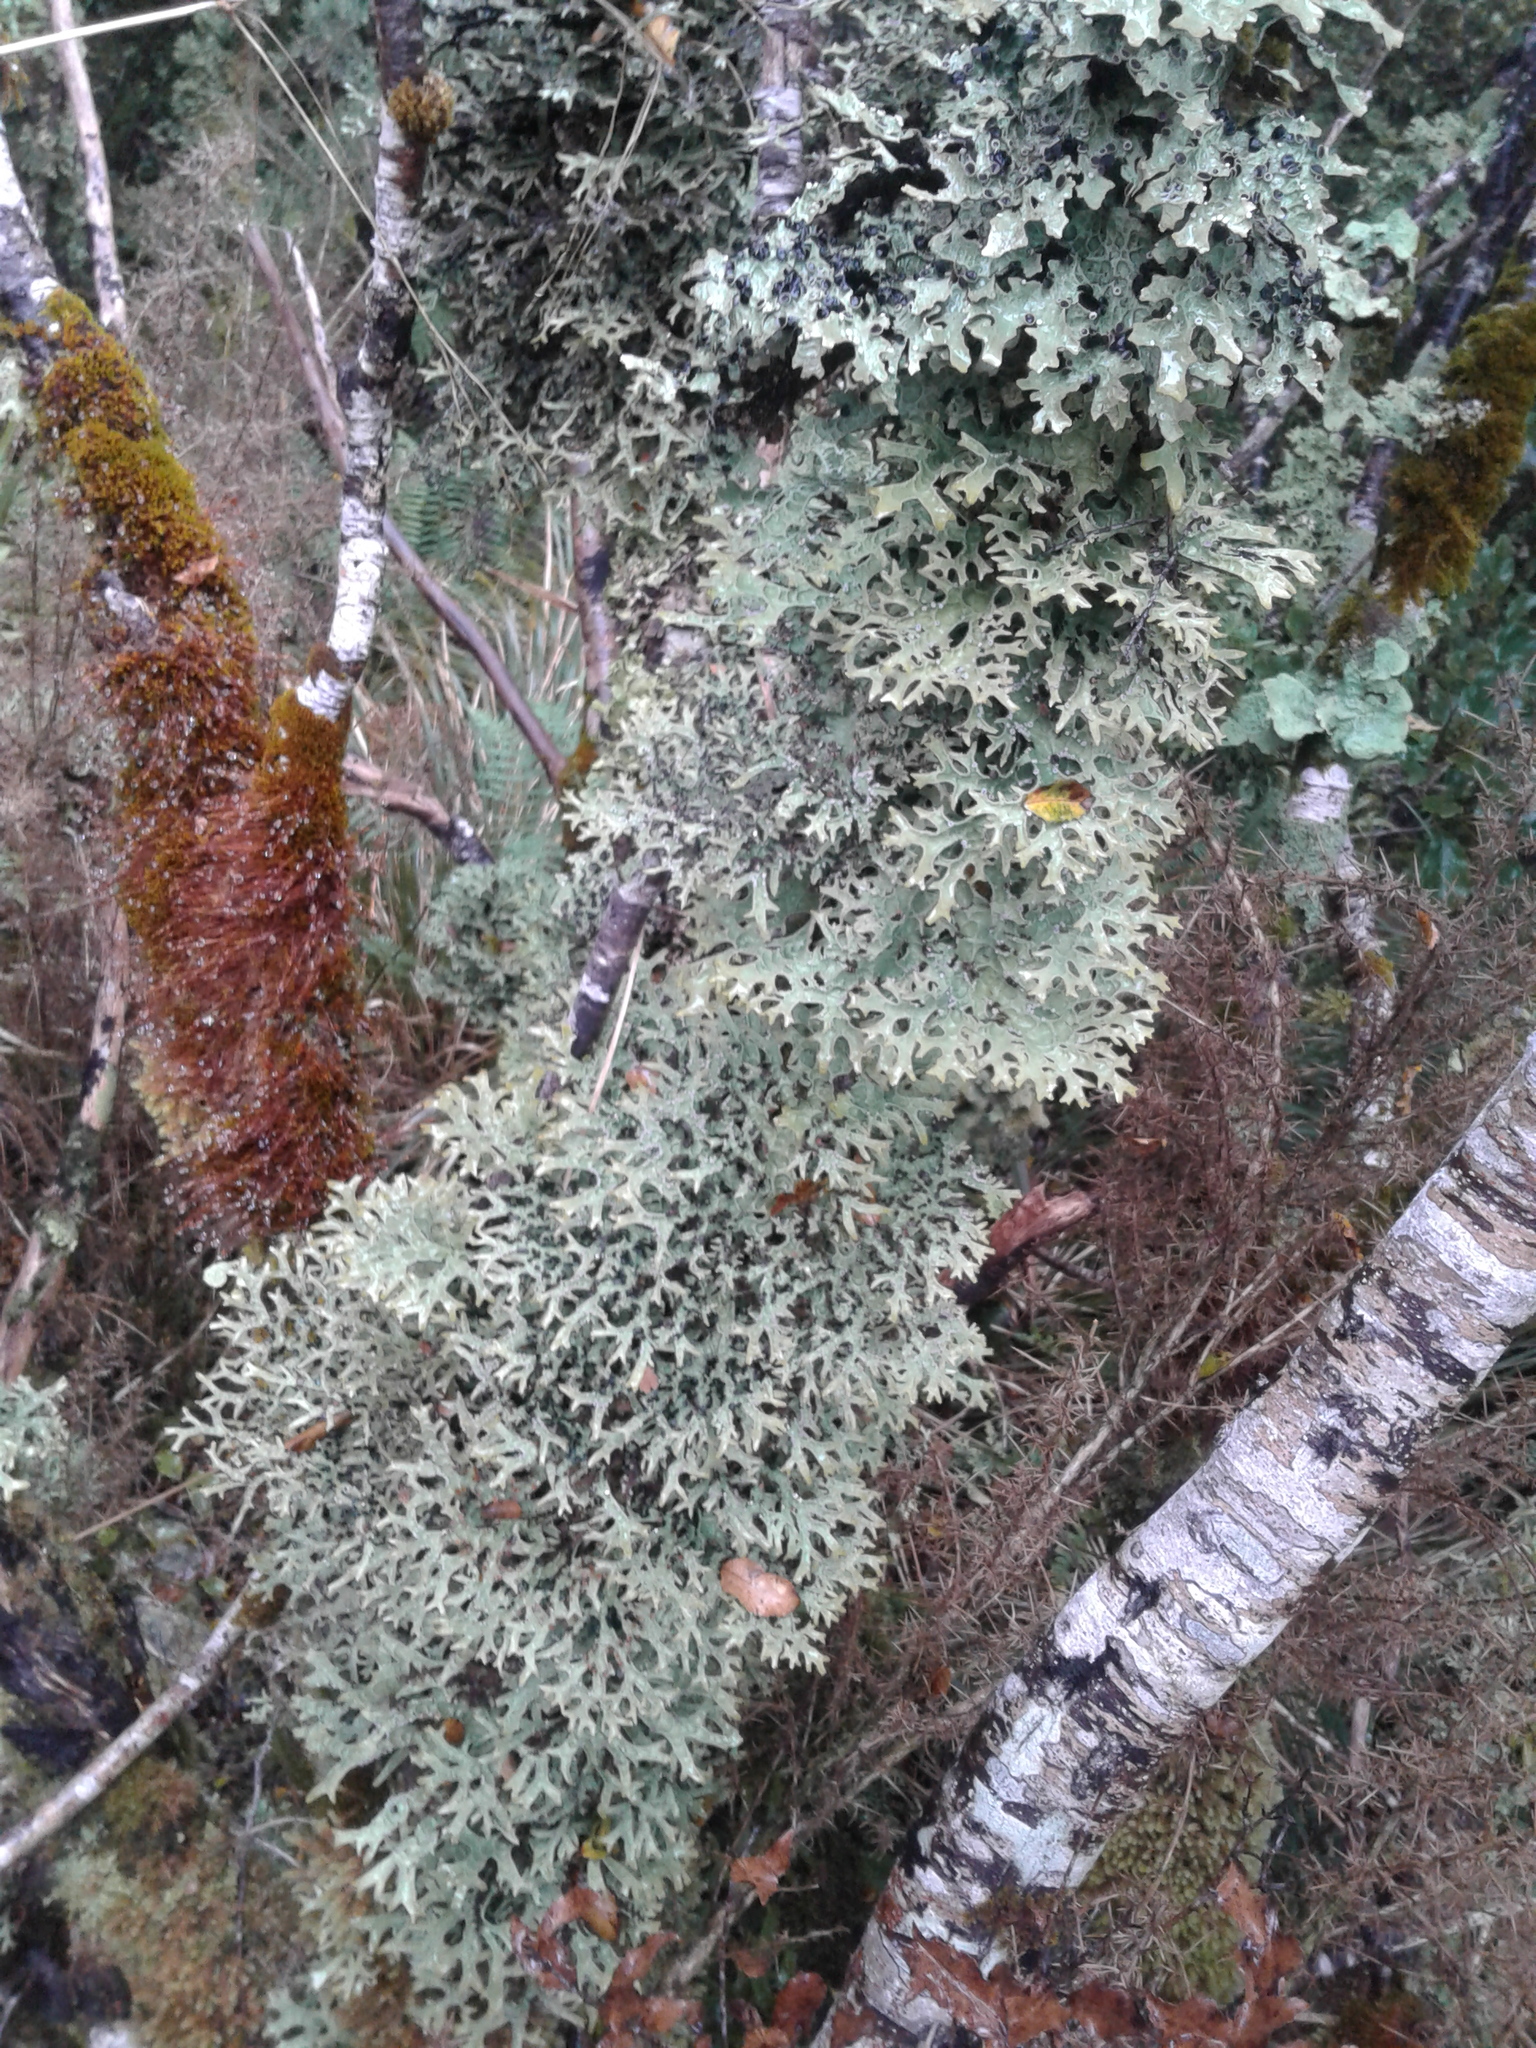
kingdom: Fungi
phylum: Ascomycota
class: Lecanoromycetes
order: Peltigerales
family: Lobariaceae
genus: Pseudocyphellaria
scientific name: Pseudocyphellaria
